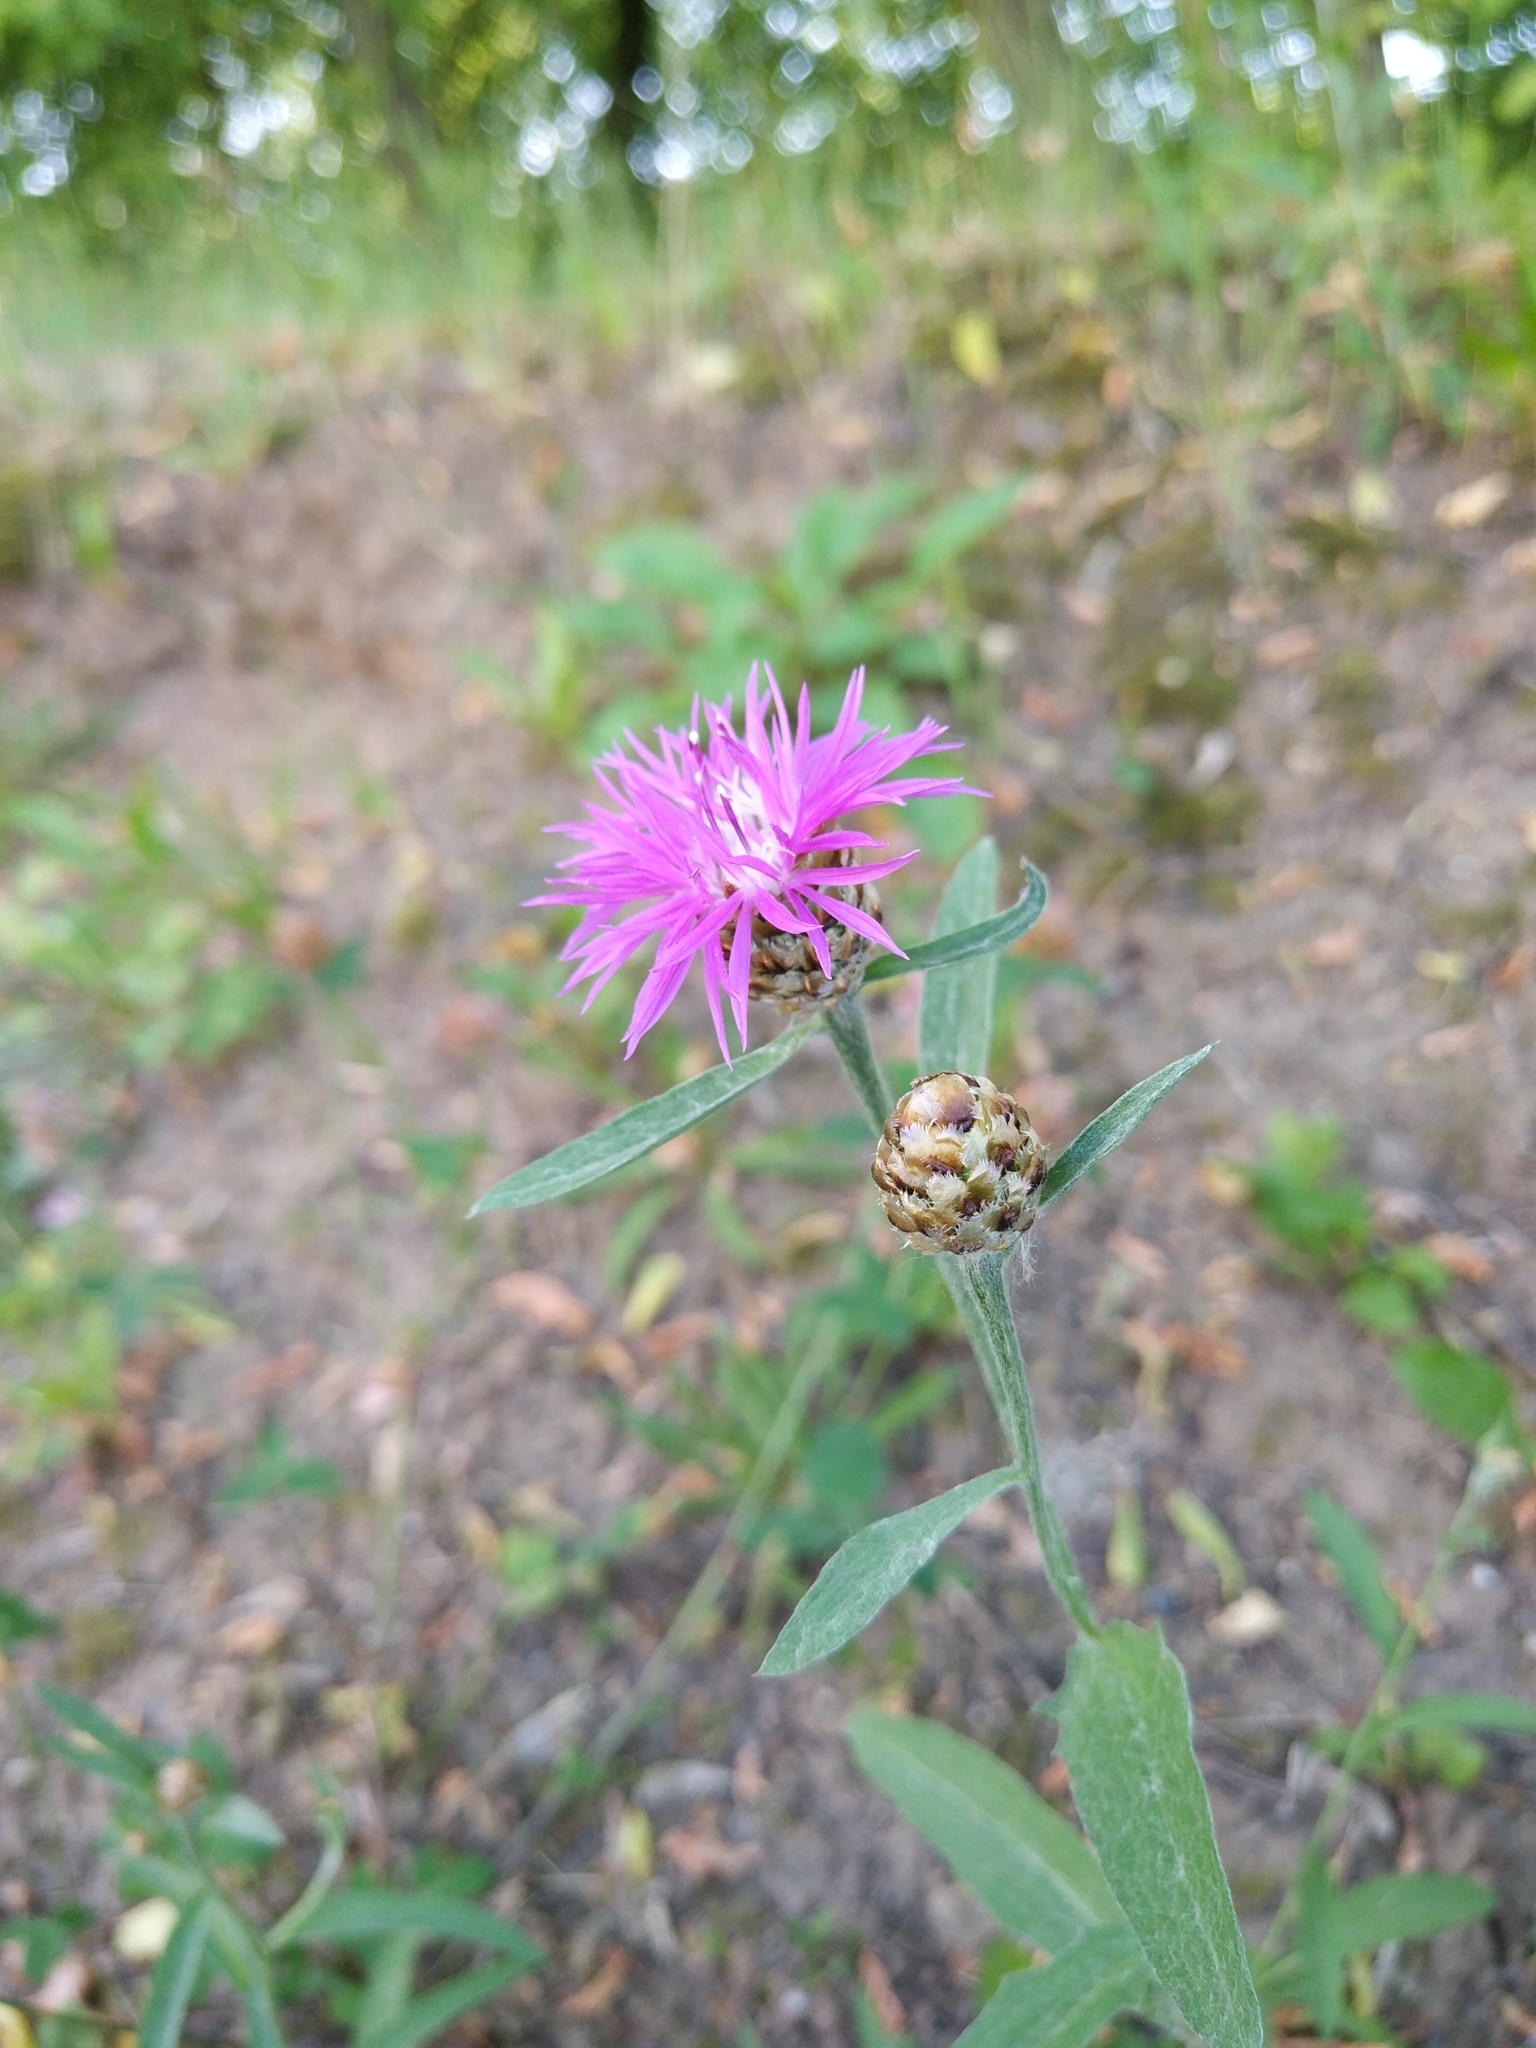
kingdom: Plantae
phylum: Tracheophyta
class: Magnoliopsida
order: Asterales
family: Asteraceae
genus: Centaurea
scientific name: Centaurea jacea
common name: Brown knapweed
